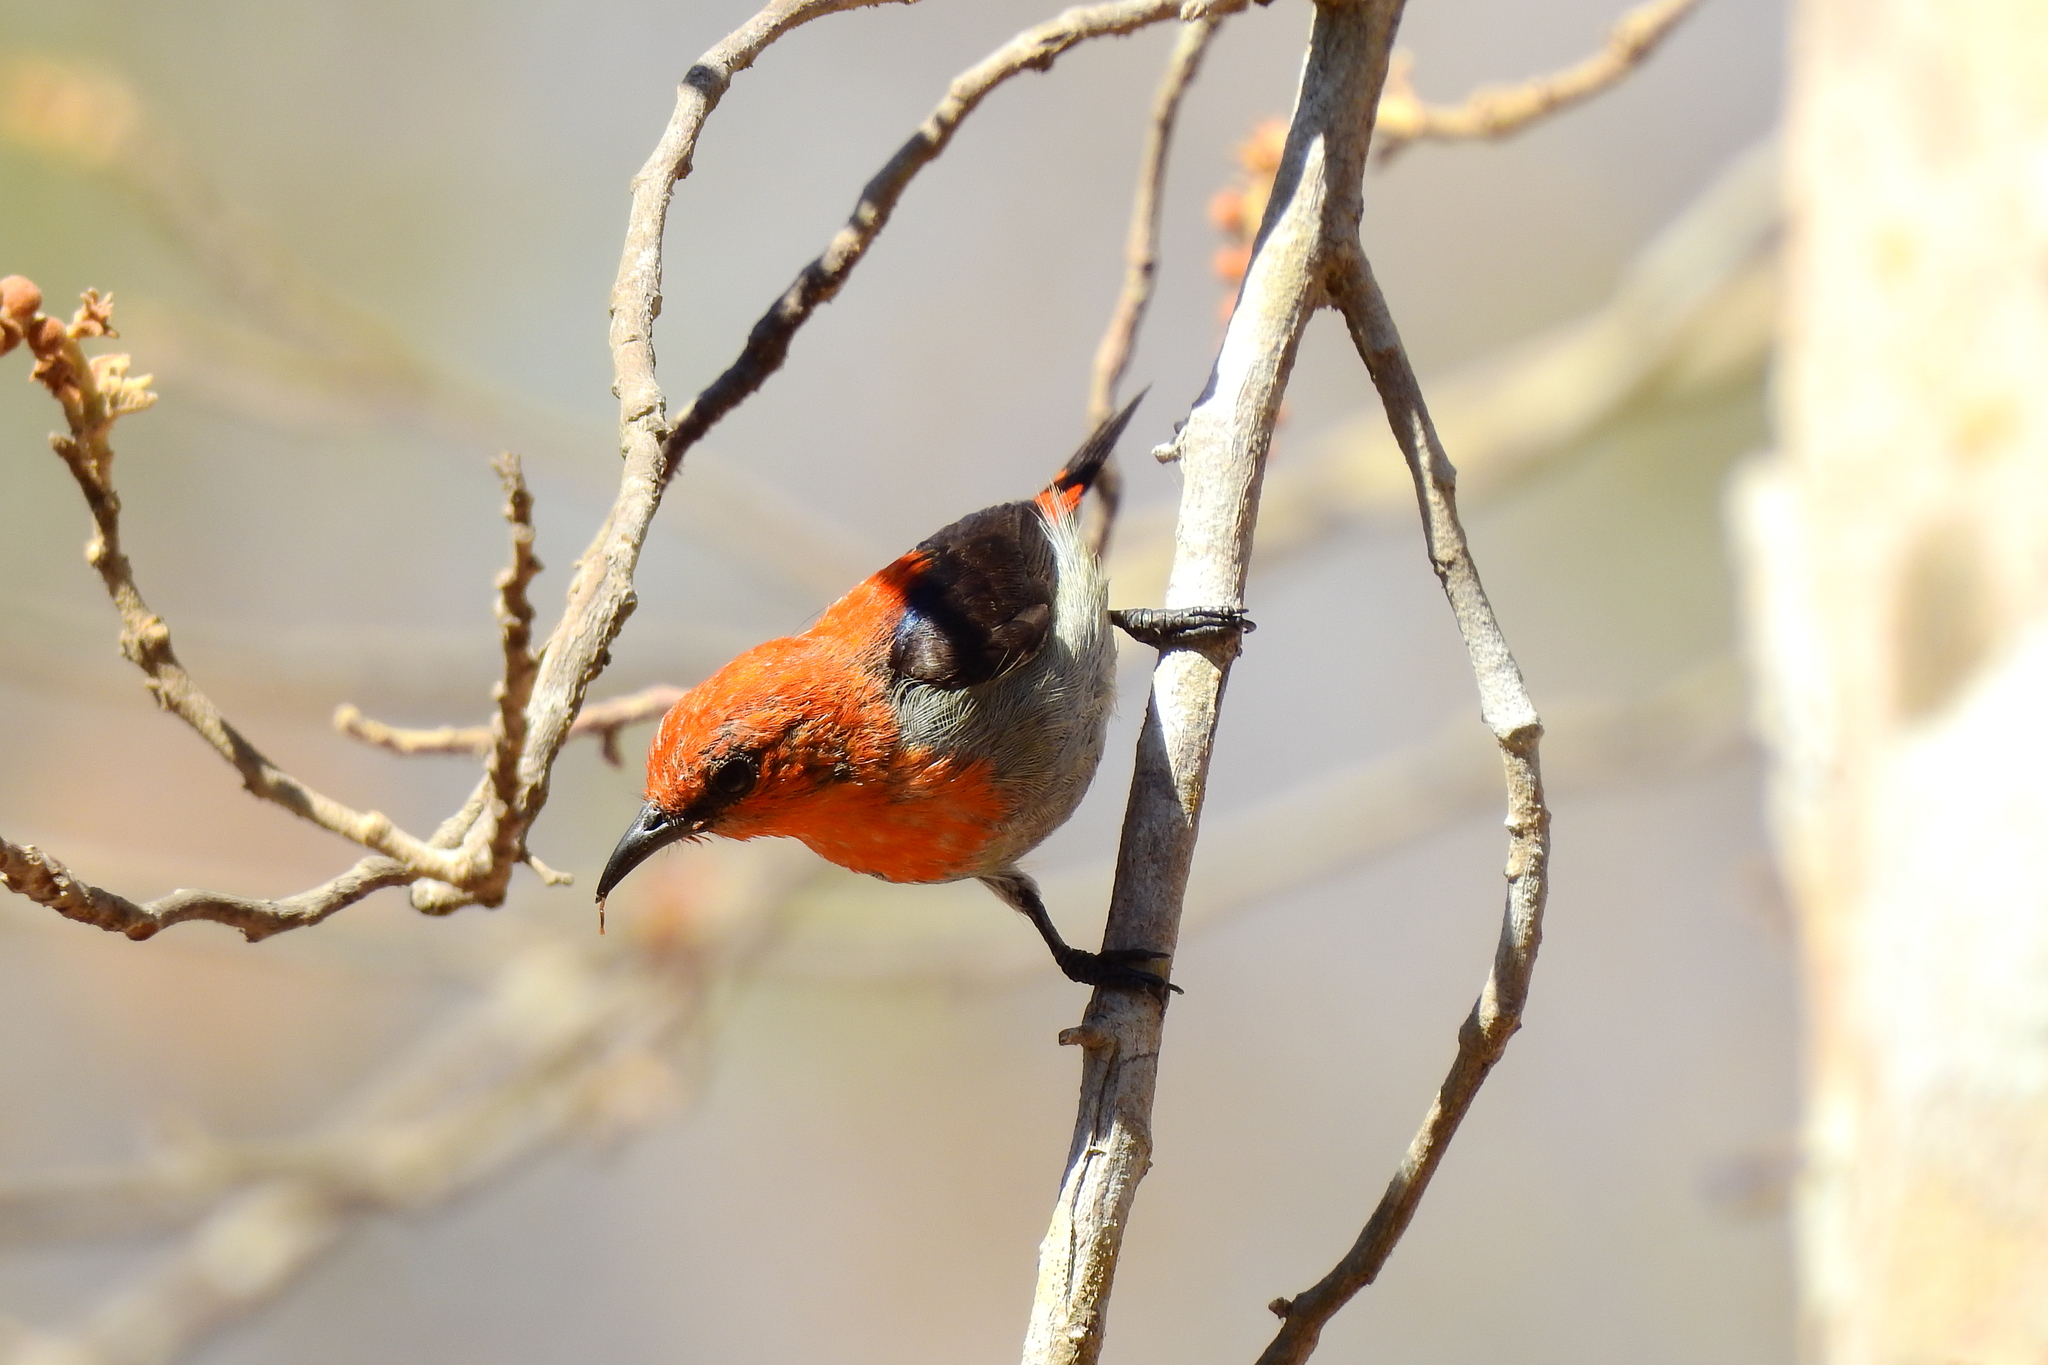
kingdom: Animalia
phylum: Chordata
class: Aves
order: Passeriformes
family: Dicaeidae
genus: Dicaeum
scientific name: Dicaeum trochileum
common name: Scarlet-headed flowerpecker
